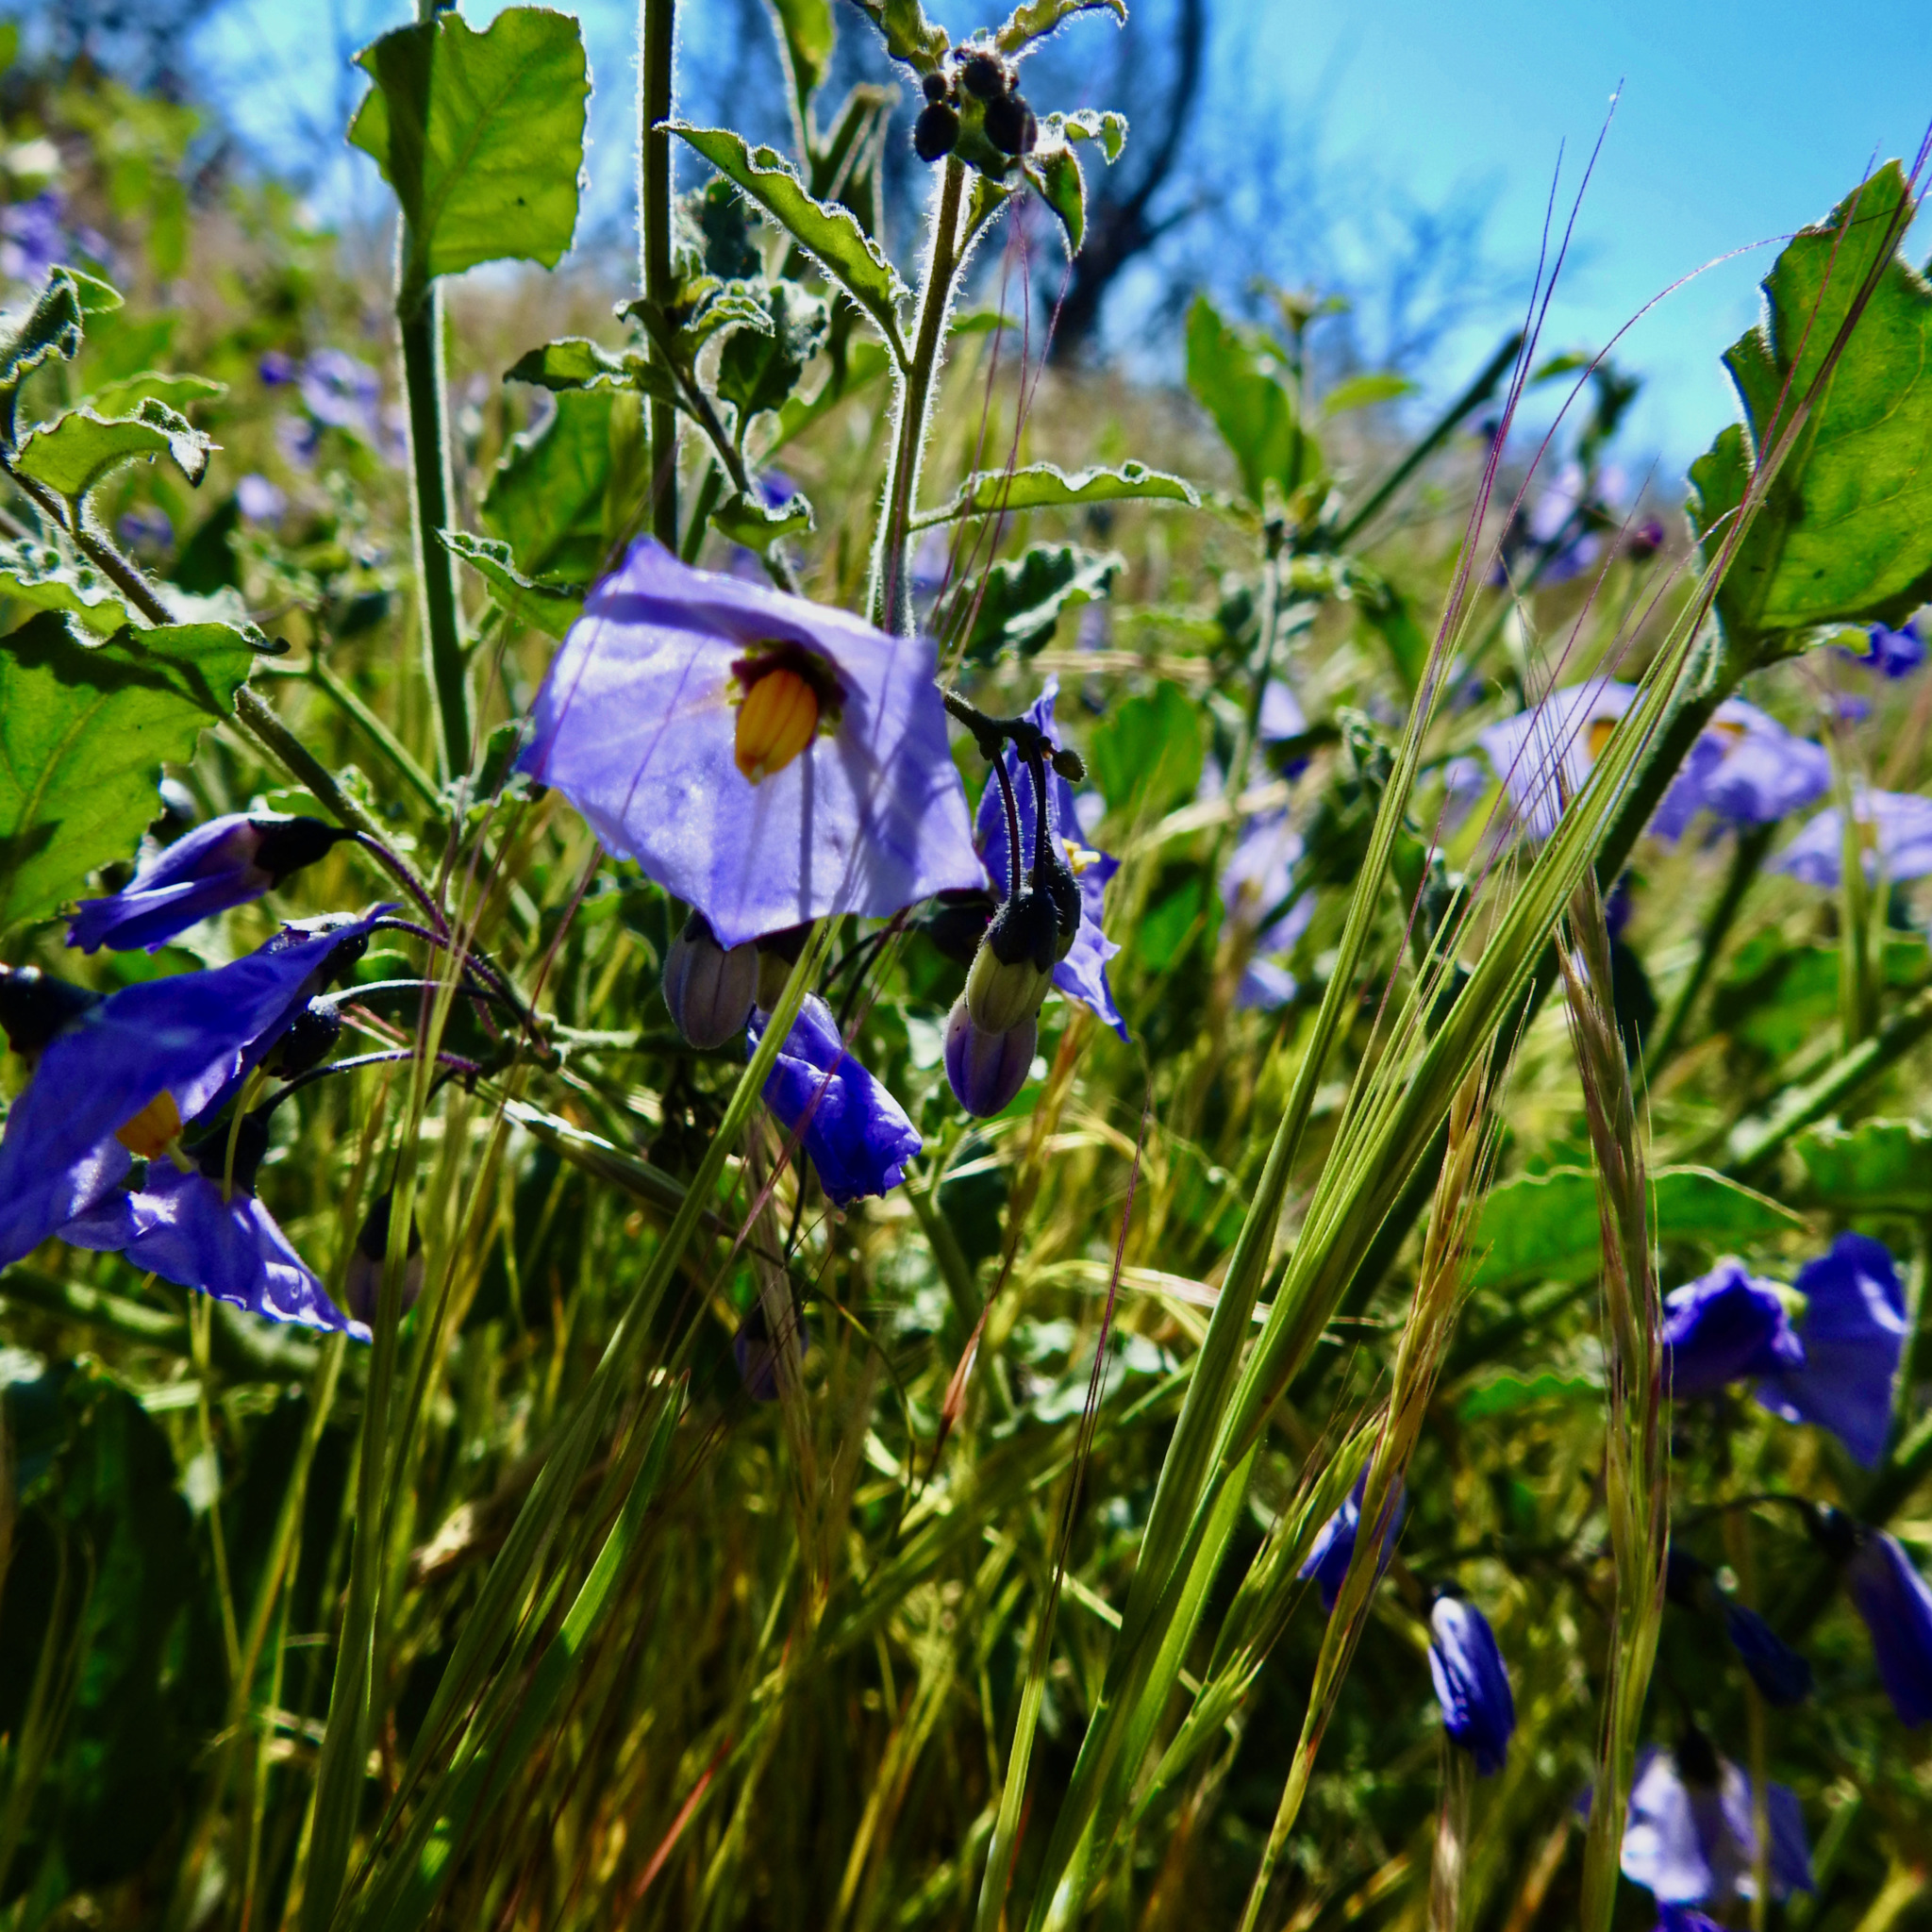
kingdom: Plantae
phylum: Tracheophyta
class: Magnoliopsida
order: Solanales
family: Solanaceae
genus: Solanum
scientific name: Solanum umbelliferum
